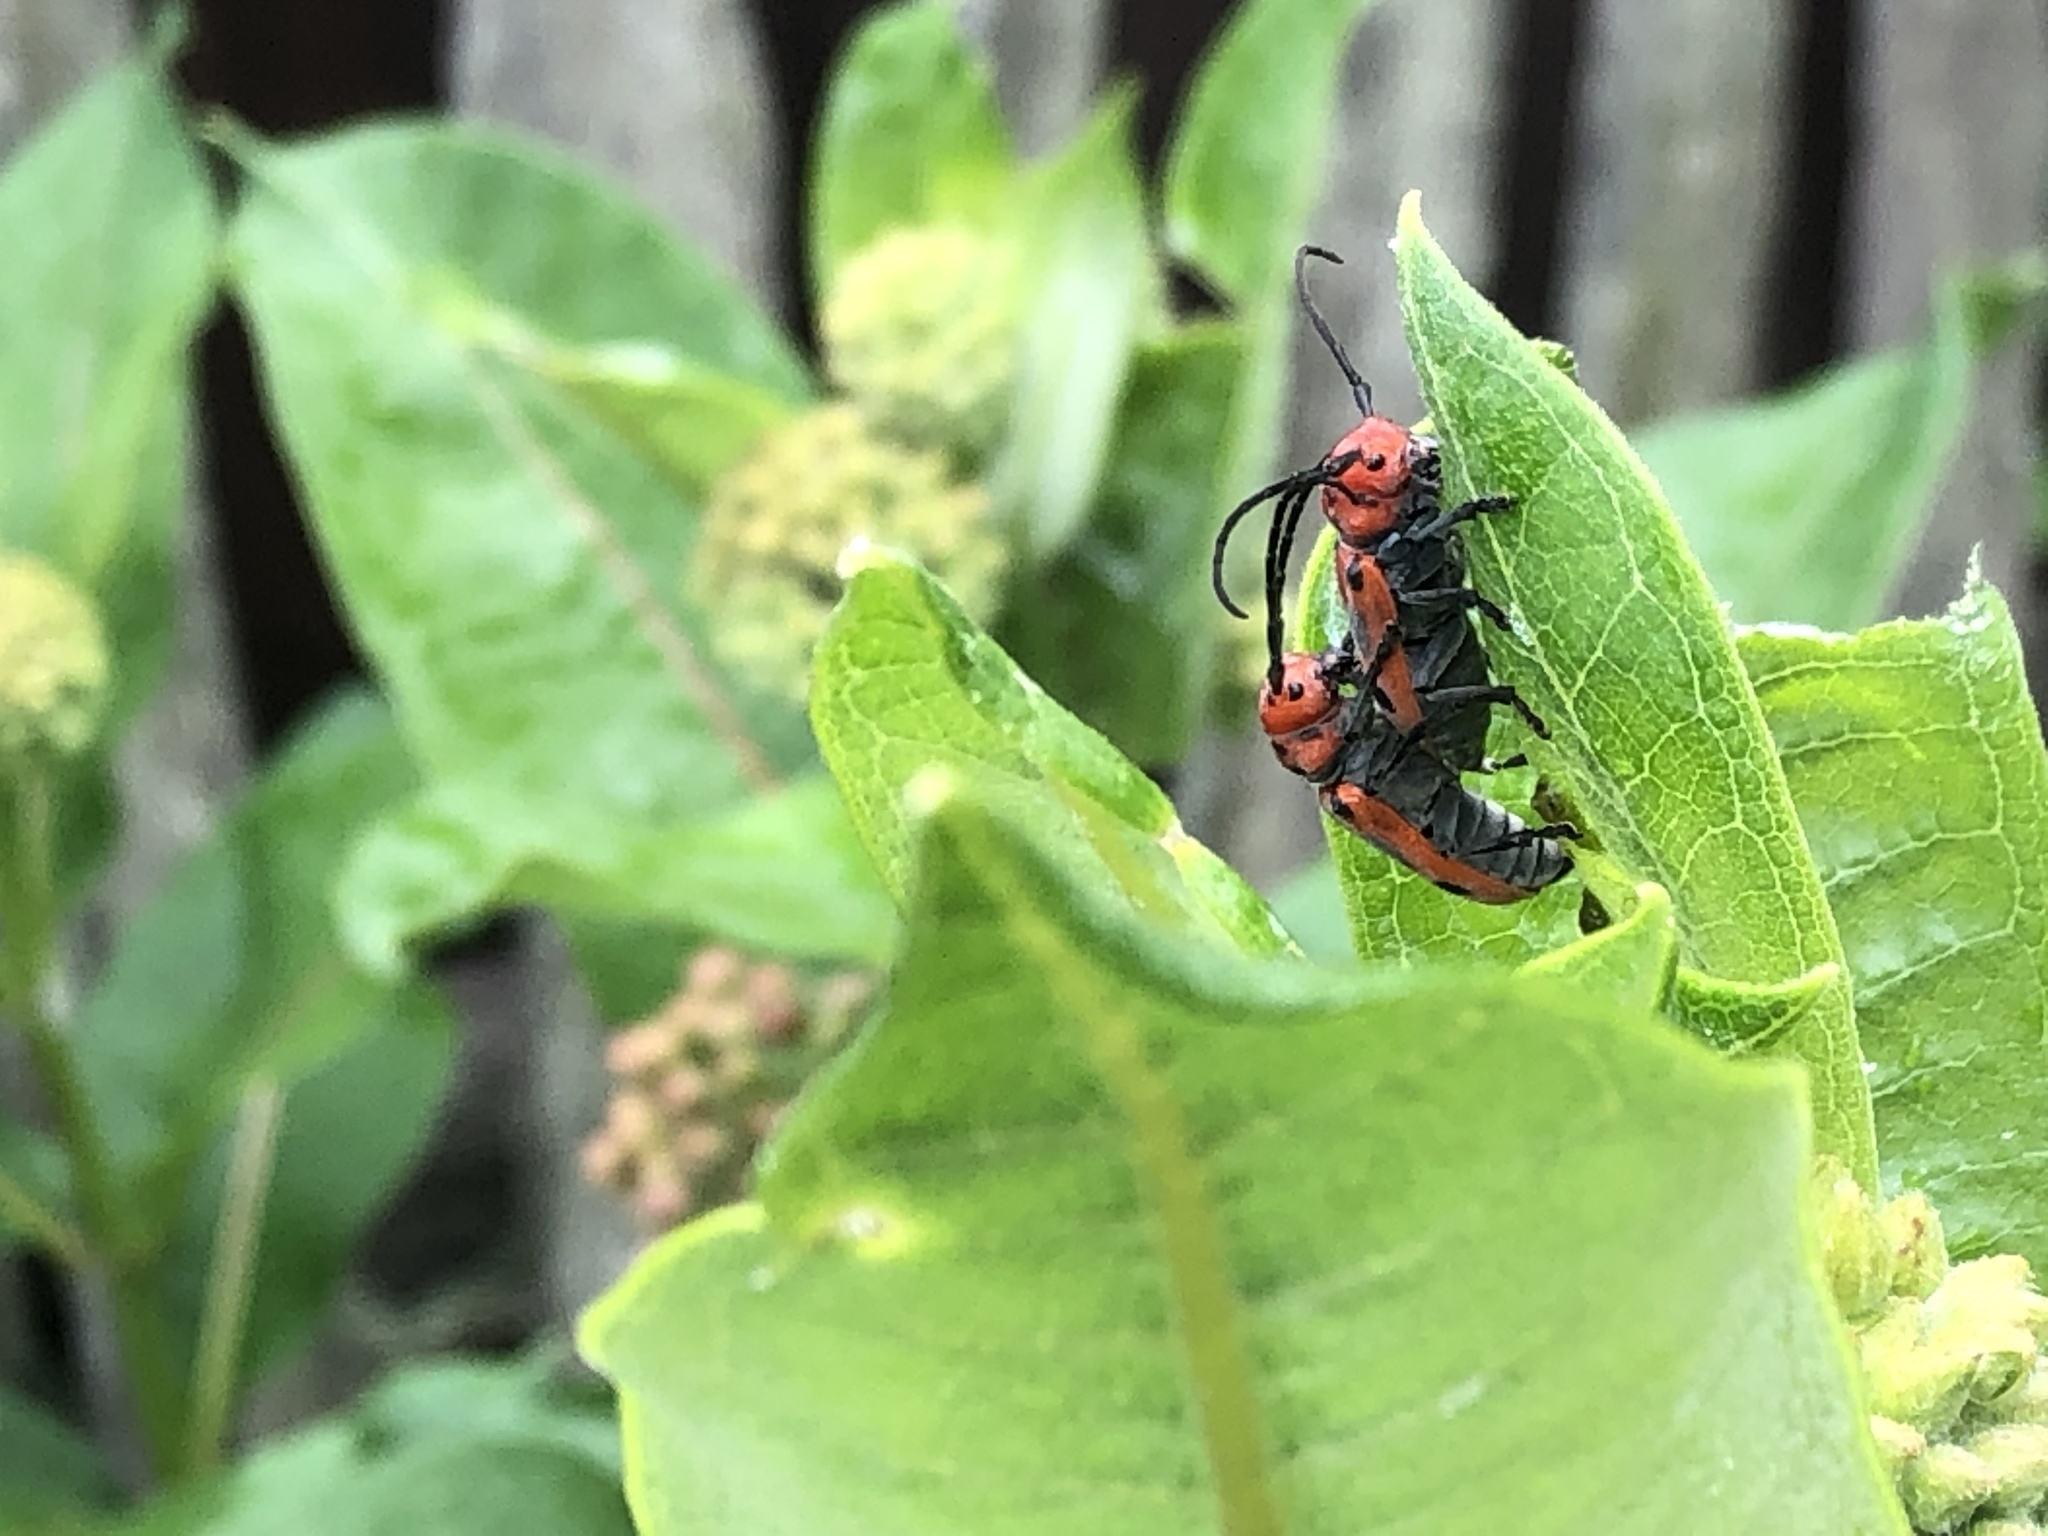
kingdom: Animalia
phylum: Arthropoda
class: Insecta
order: Coleoptera
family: Cerambycidae
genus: Tetraopes
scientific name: Tetraopes tetrophthalmus
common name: Red milkweed beetle
